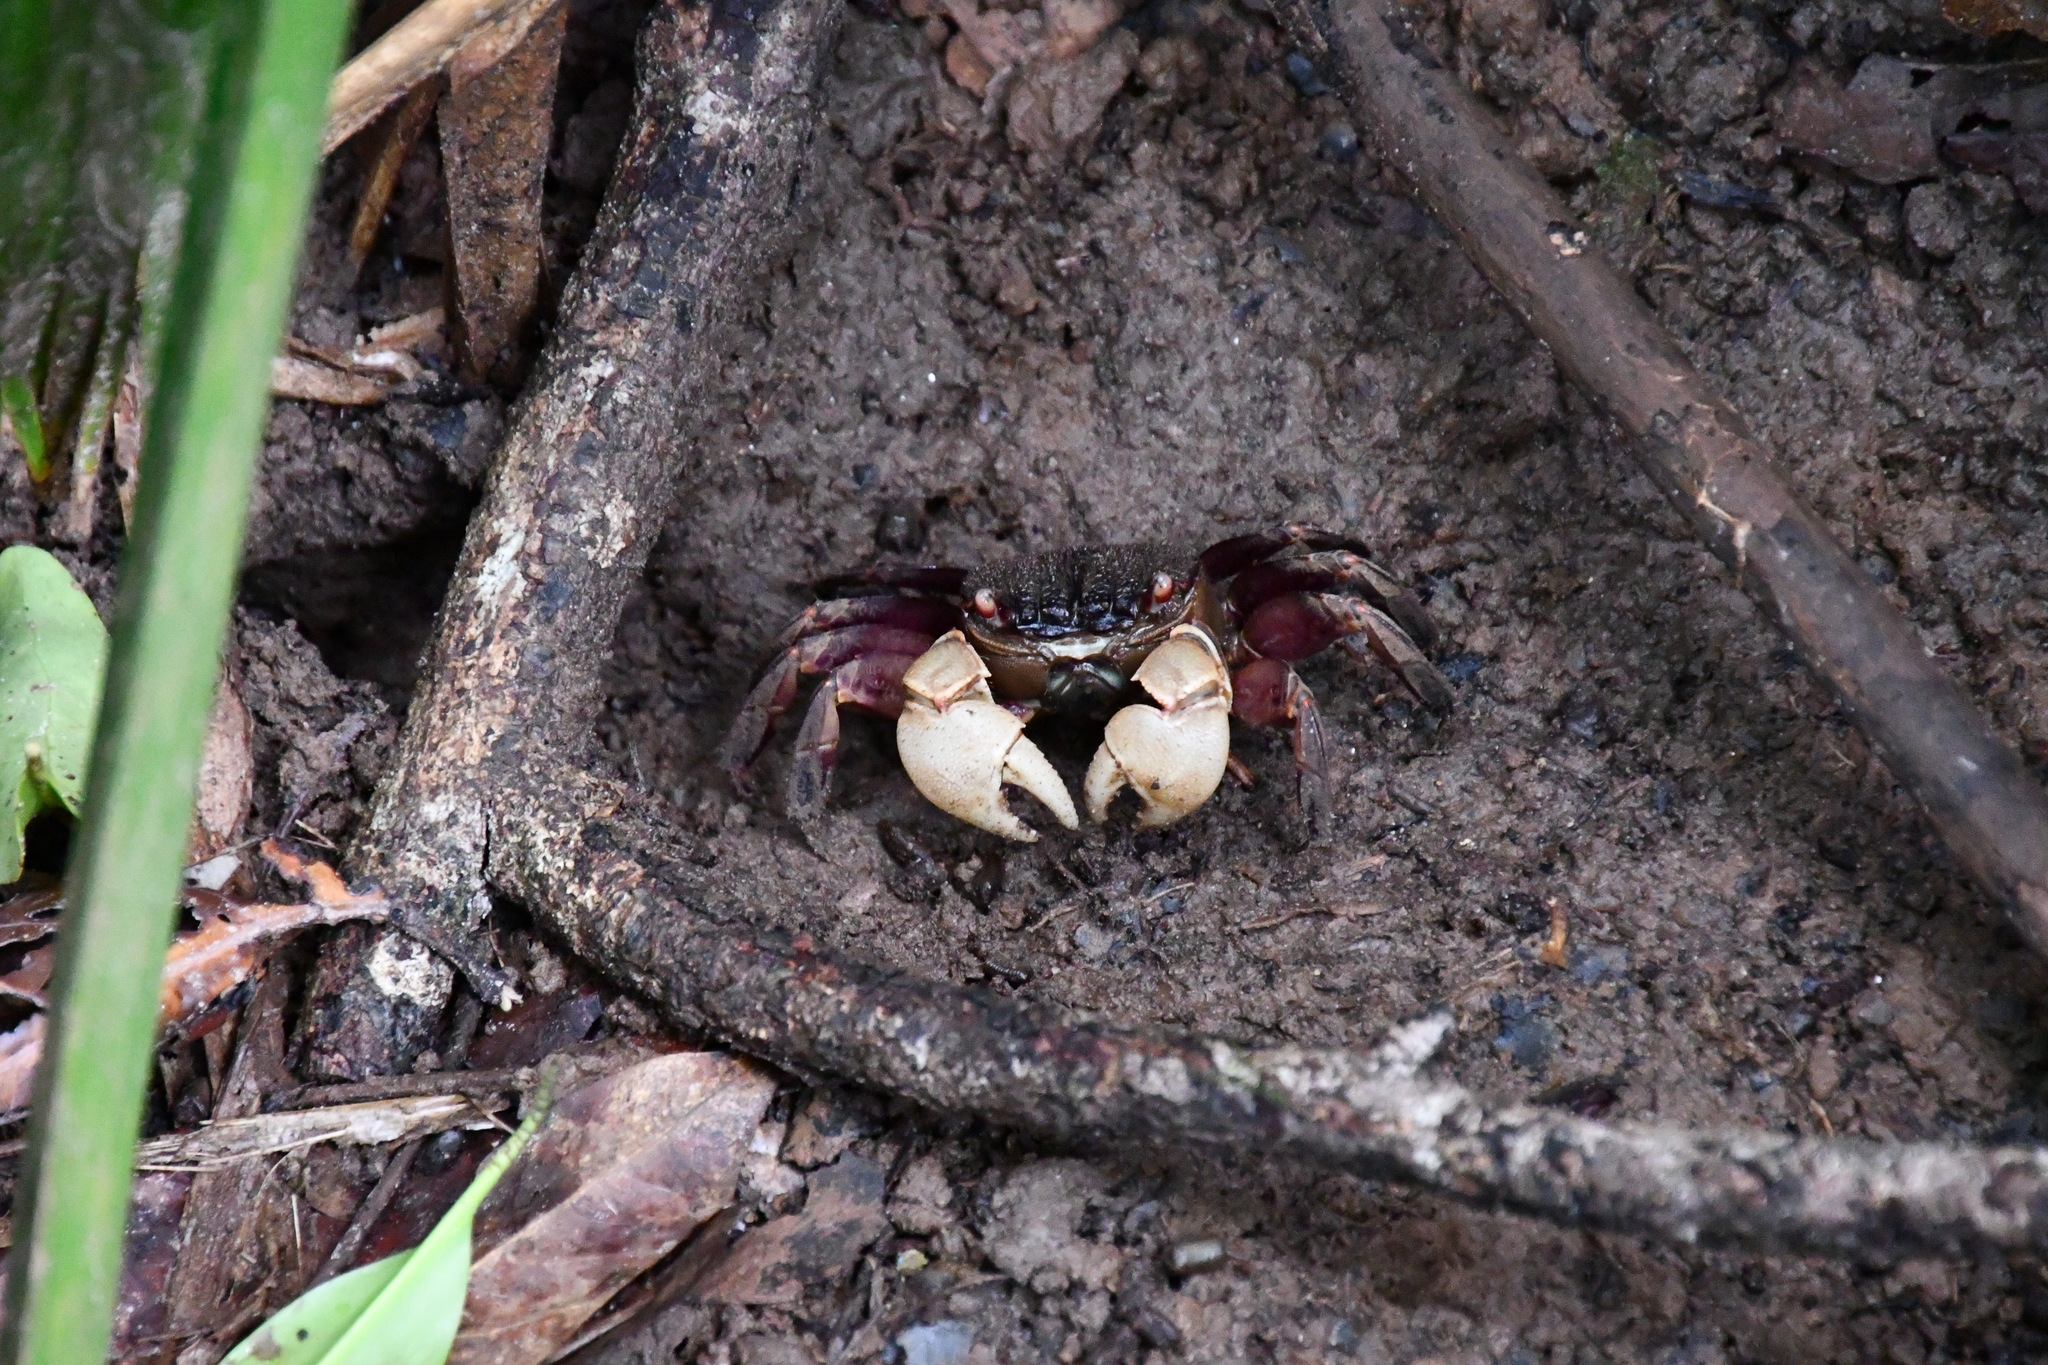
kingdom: Animalia
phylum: Arthropoda
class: Malacostraca
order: Decapoda
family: Sesarmidae
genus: Tiomanium
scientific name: Tiomanium indicum
